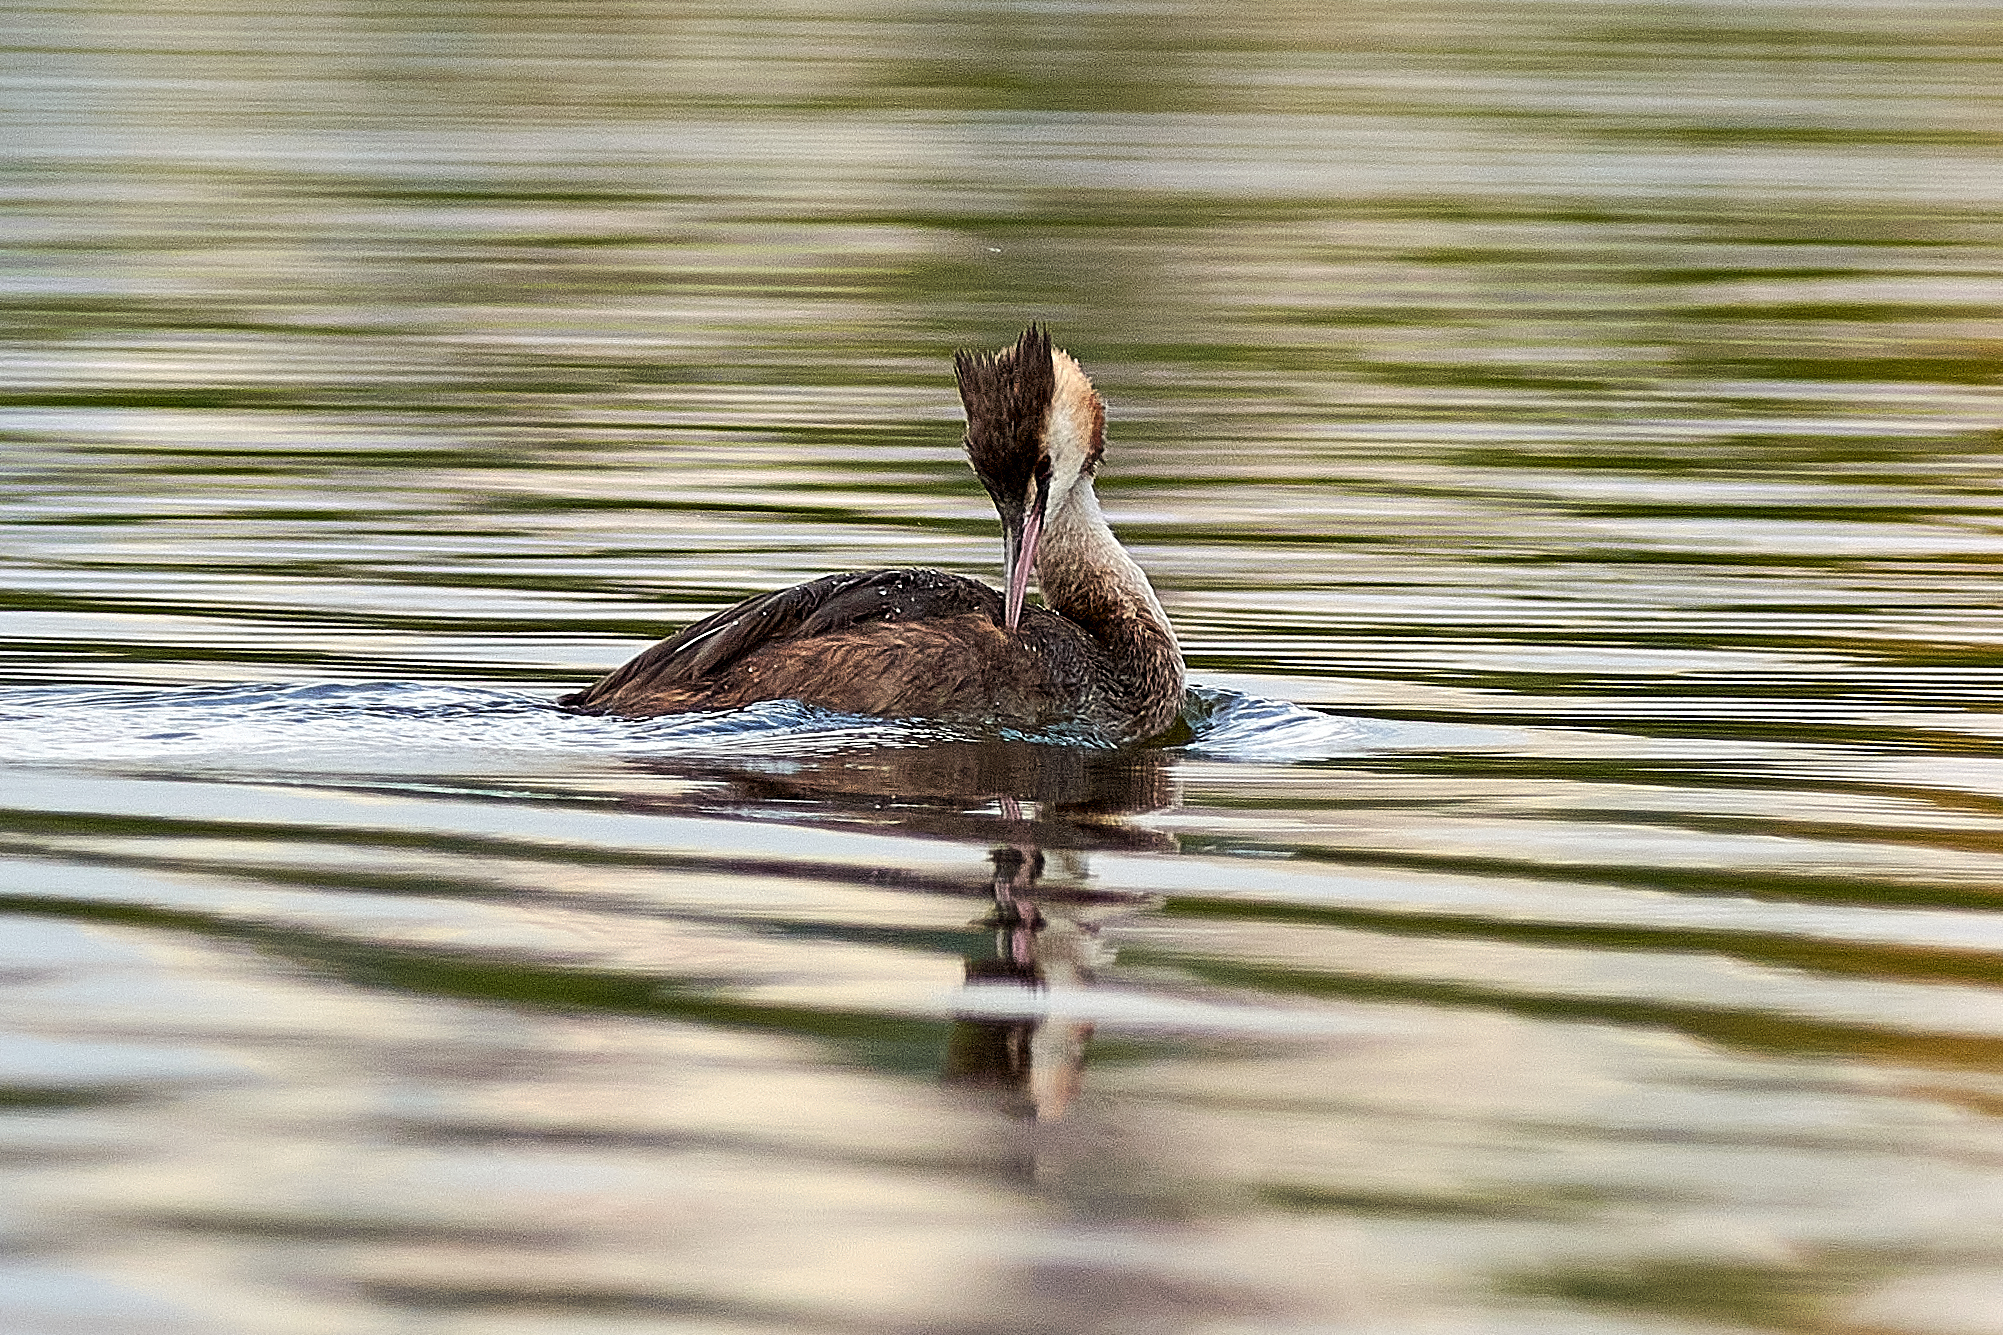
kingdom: Animalia
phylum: Chordata
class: Aves
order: Podicipediformes
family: Podicipedidae
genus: Podiceps
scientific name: Podiceps cristatus
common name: Great crested grebe
